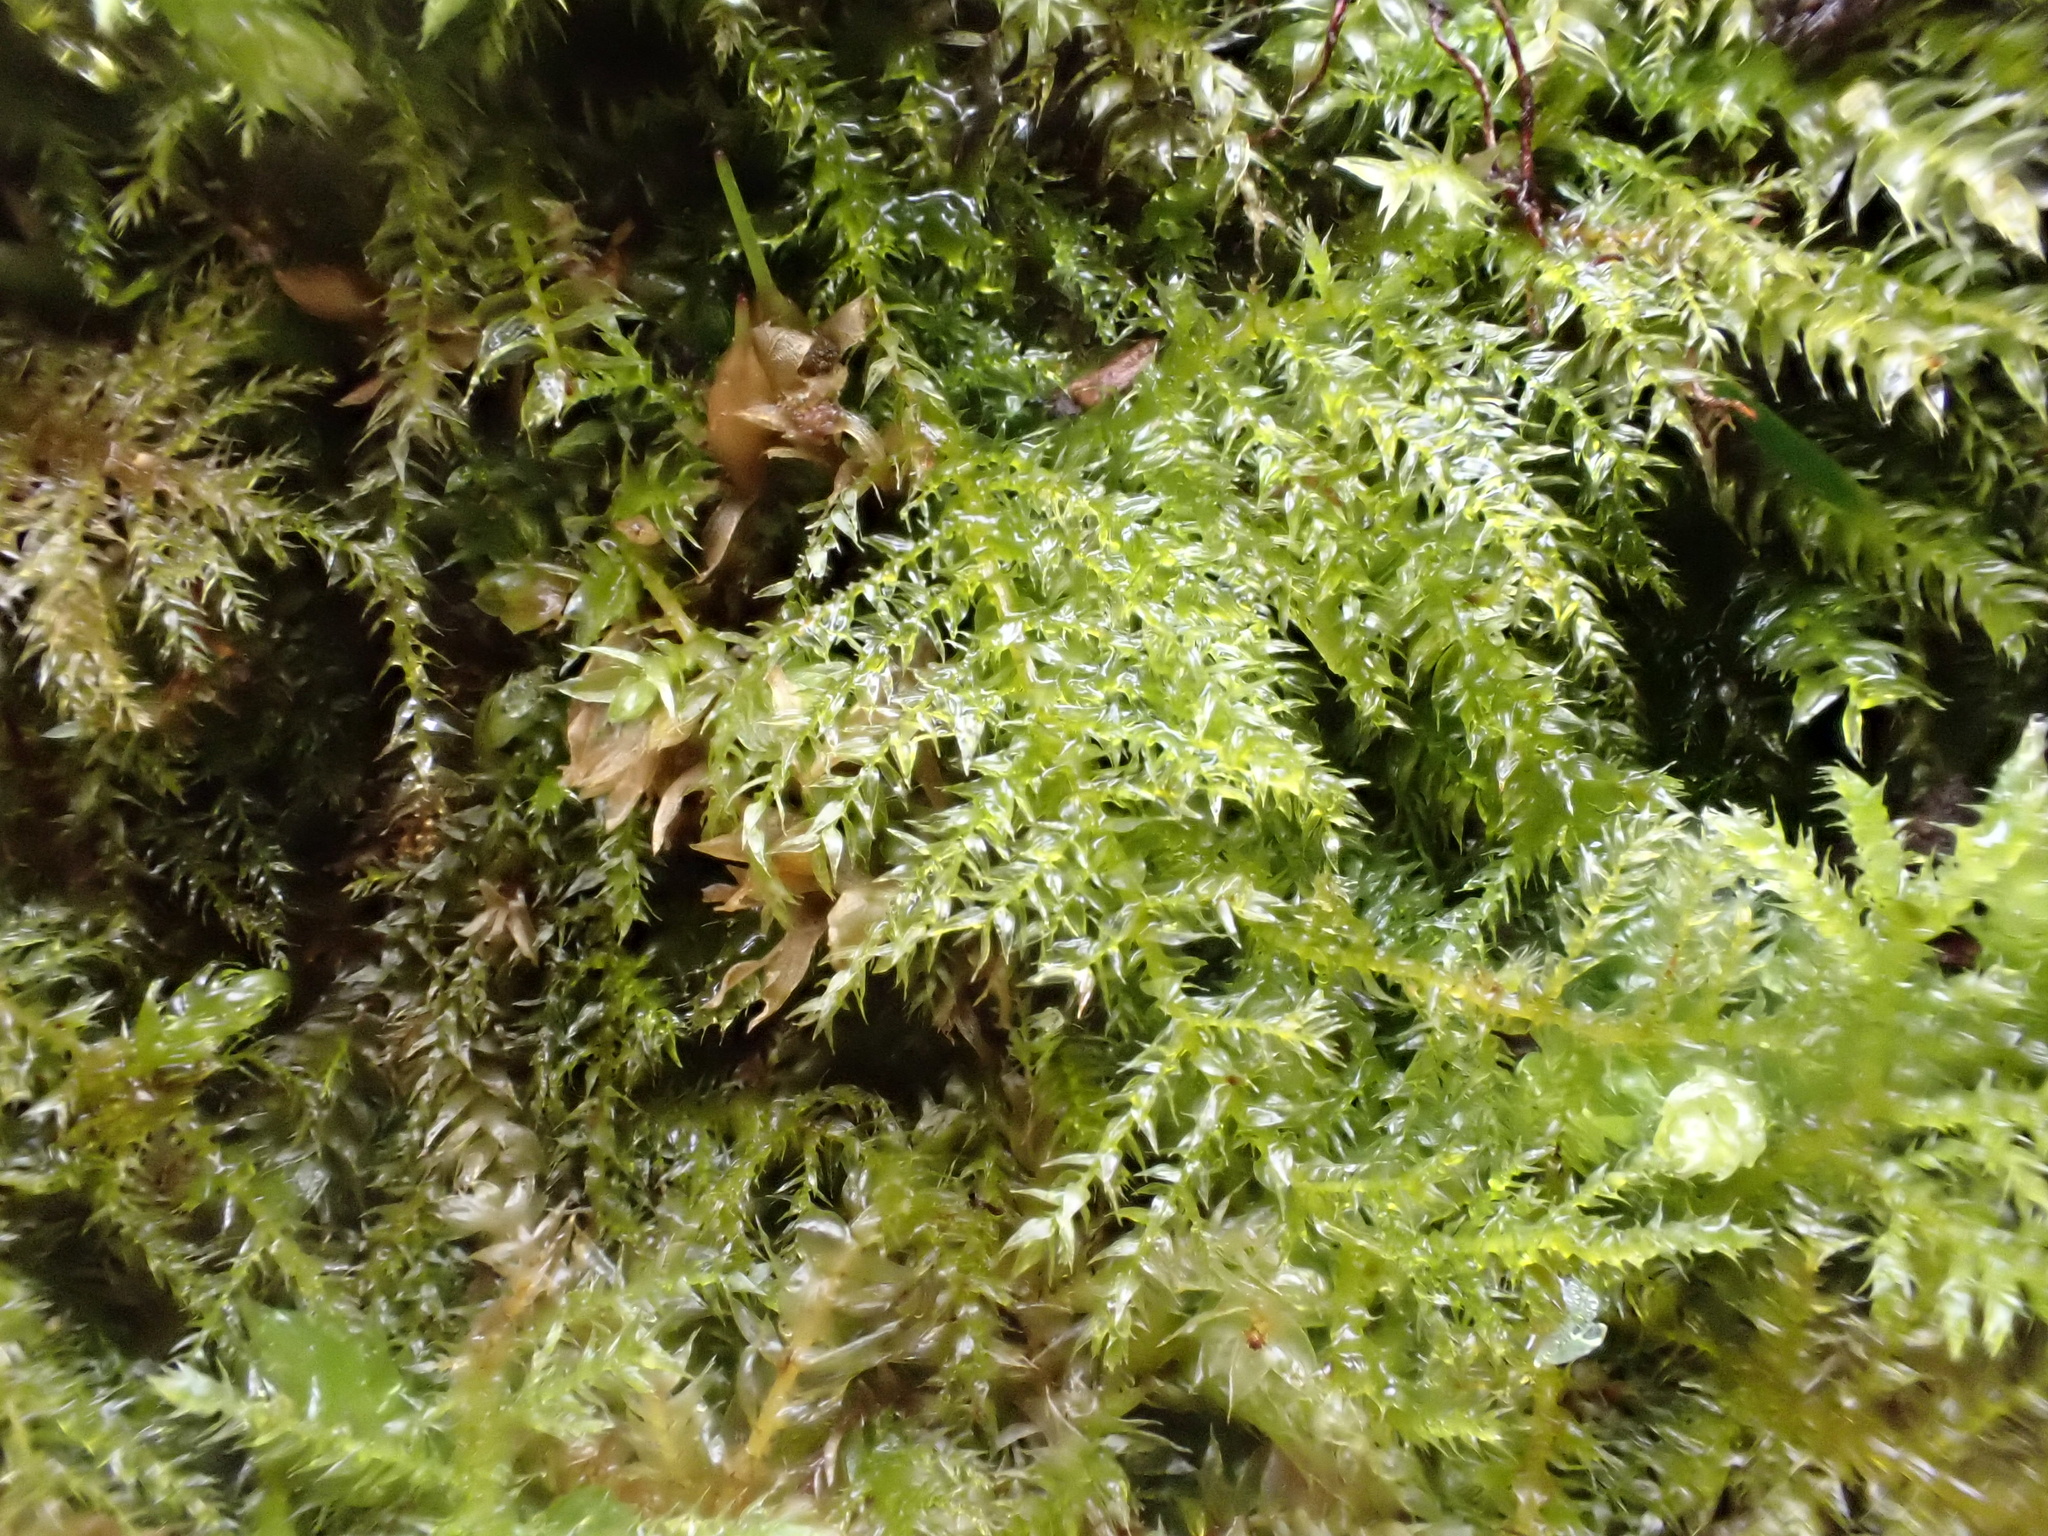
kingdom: Plantae
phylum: Bryophyta
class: Bryopsida
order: Hypnales
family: Brachytheciaceae
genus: Kindbergia
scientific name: Kindbergia praelonga
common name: Slender beaked moss
